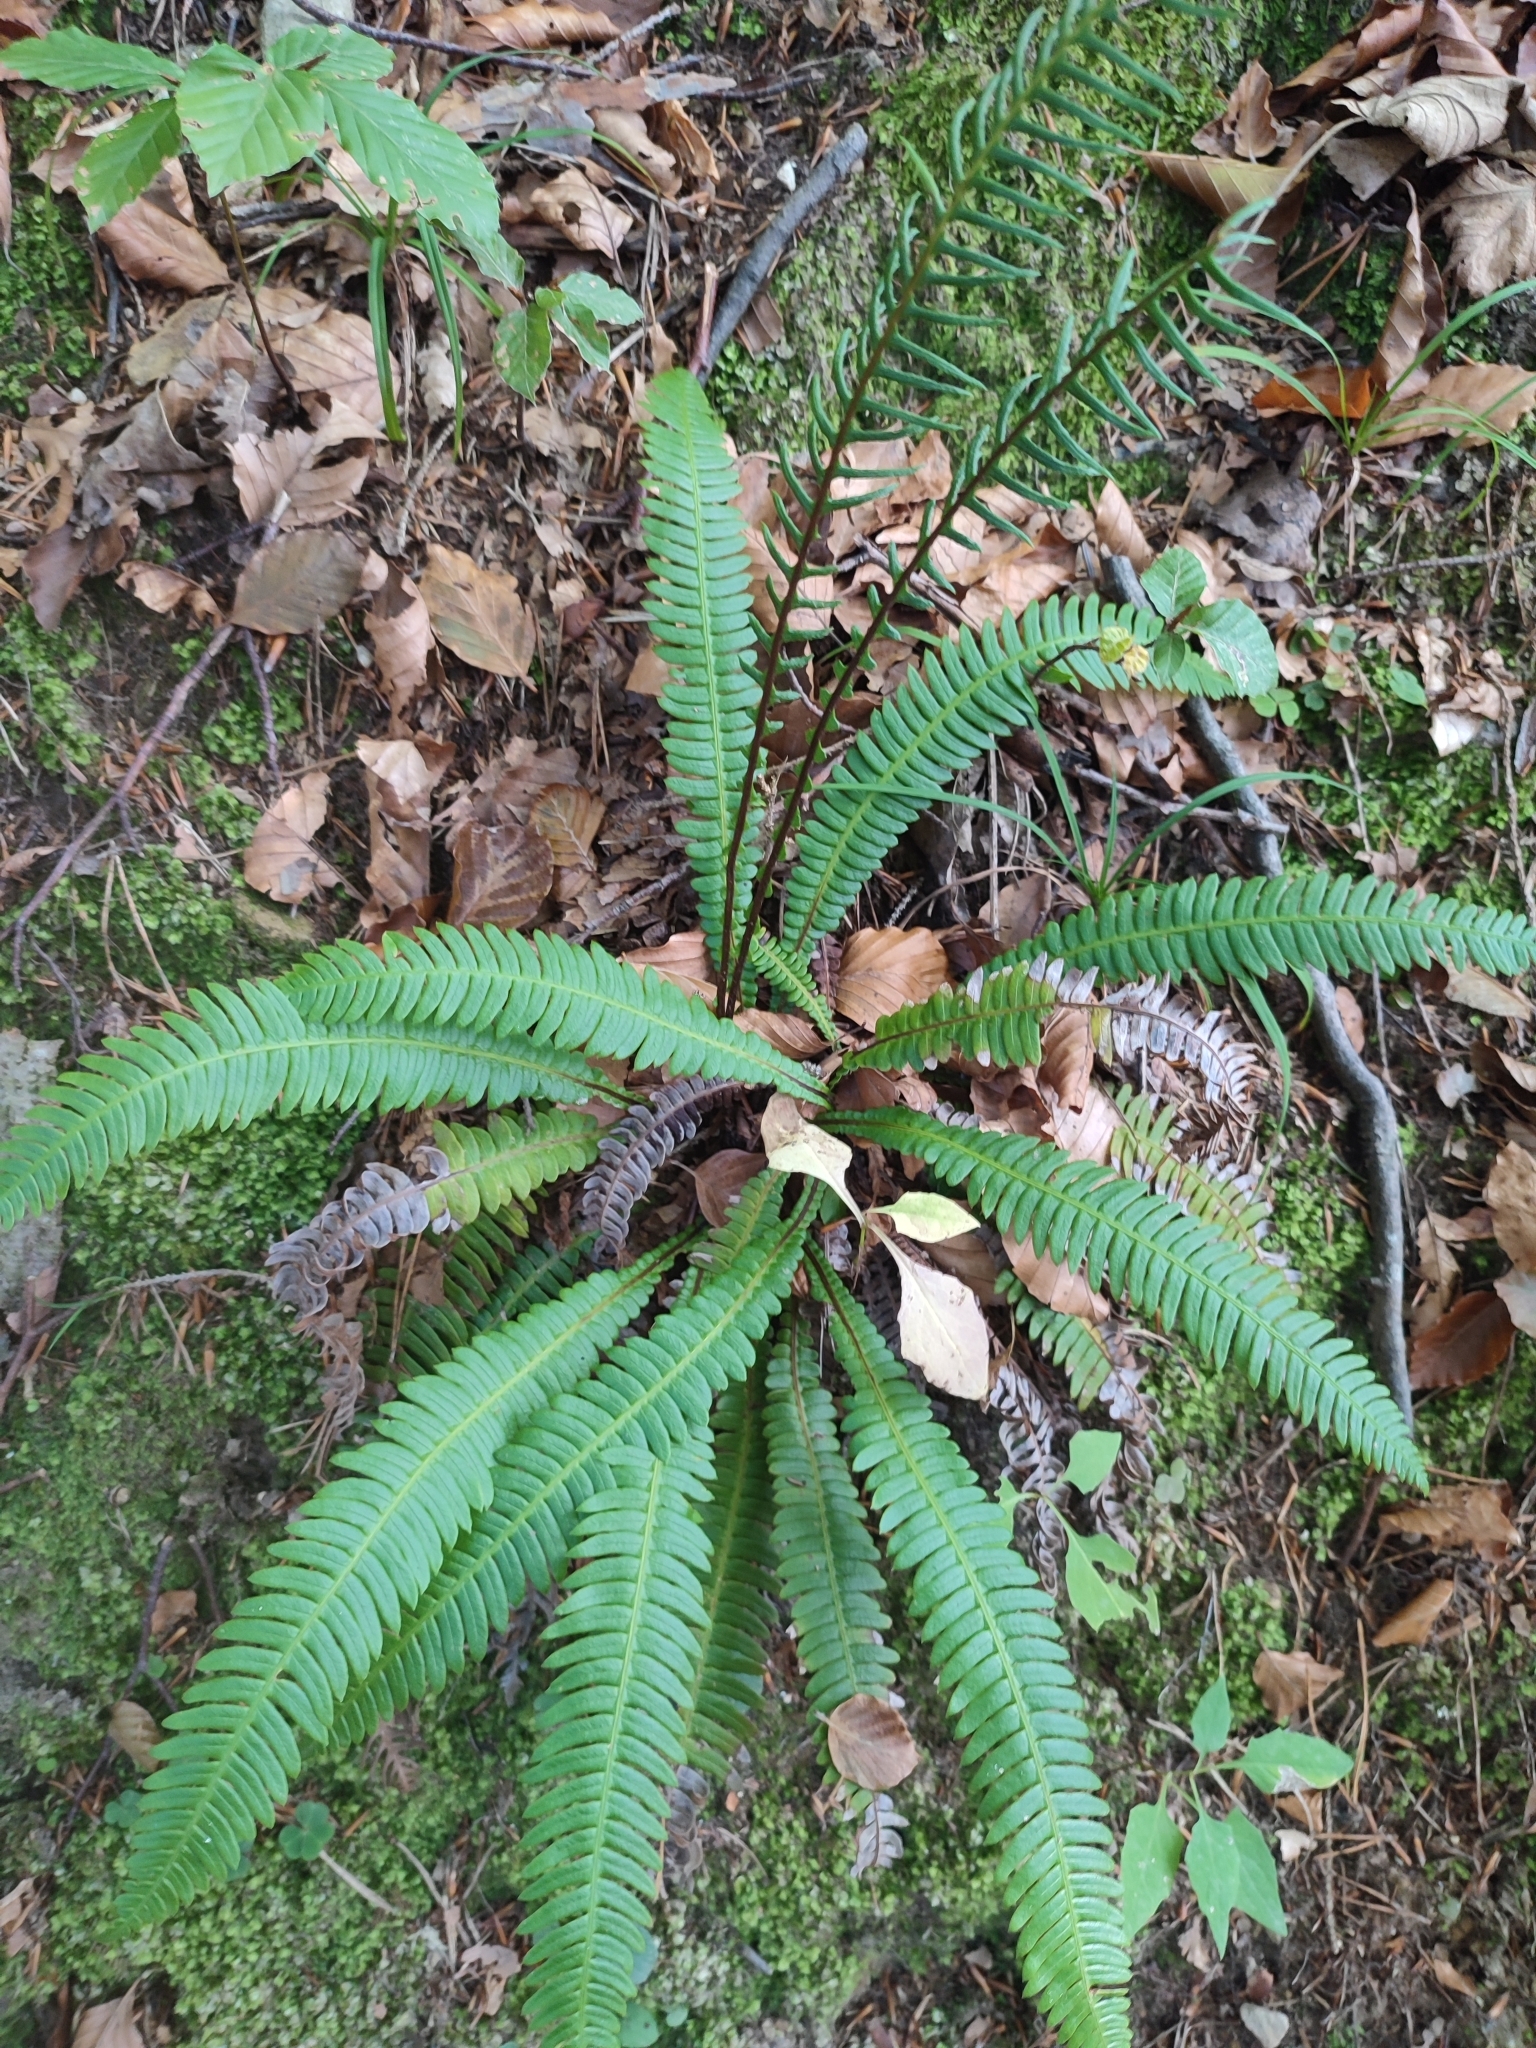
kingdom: Plantae
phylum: Tracheophyta
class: Polypodiopsida
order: Polypodiales
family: Blechnaceae
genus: Struthiopteris
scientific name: Struthiopteris spicant
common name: Deer fern
